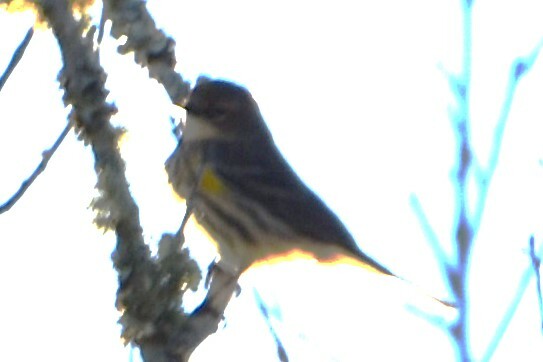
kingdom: Animalia
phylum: Chordata
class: Aves
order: Passeriformes
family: Parulidae
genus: Setophaga
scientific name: Setophaga coronata
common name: Myrtle warbler
